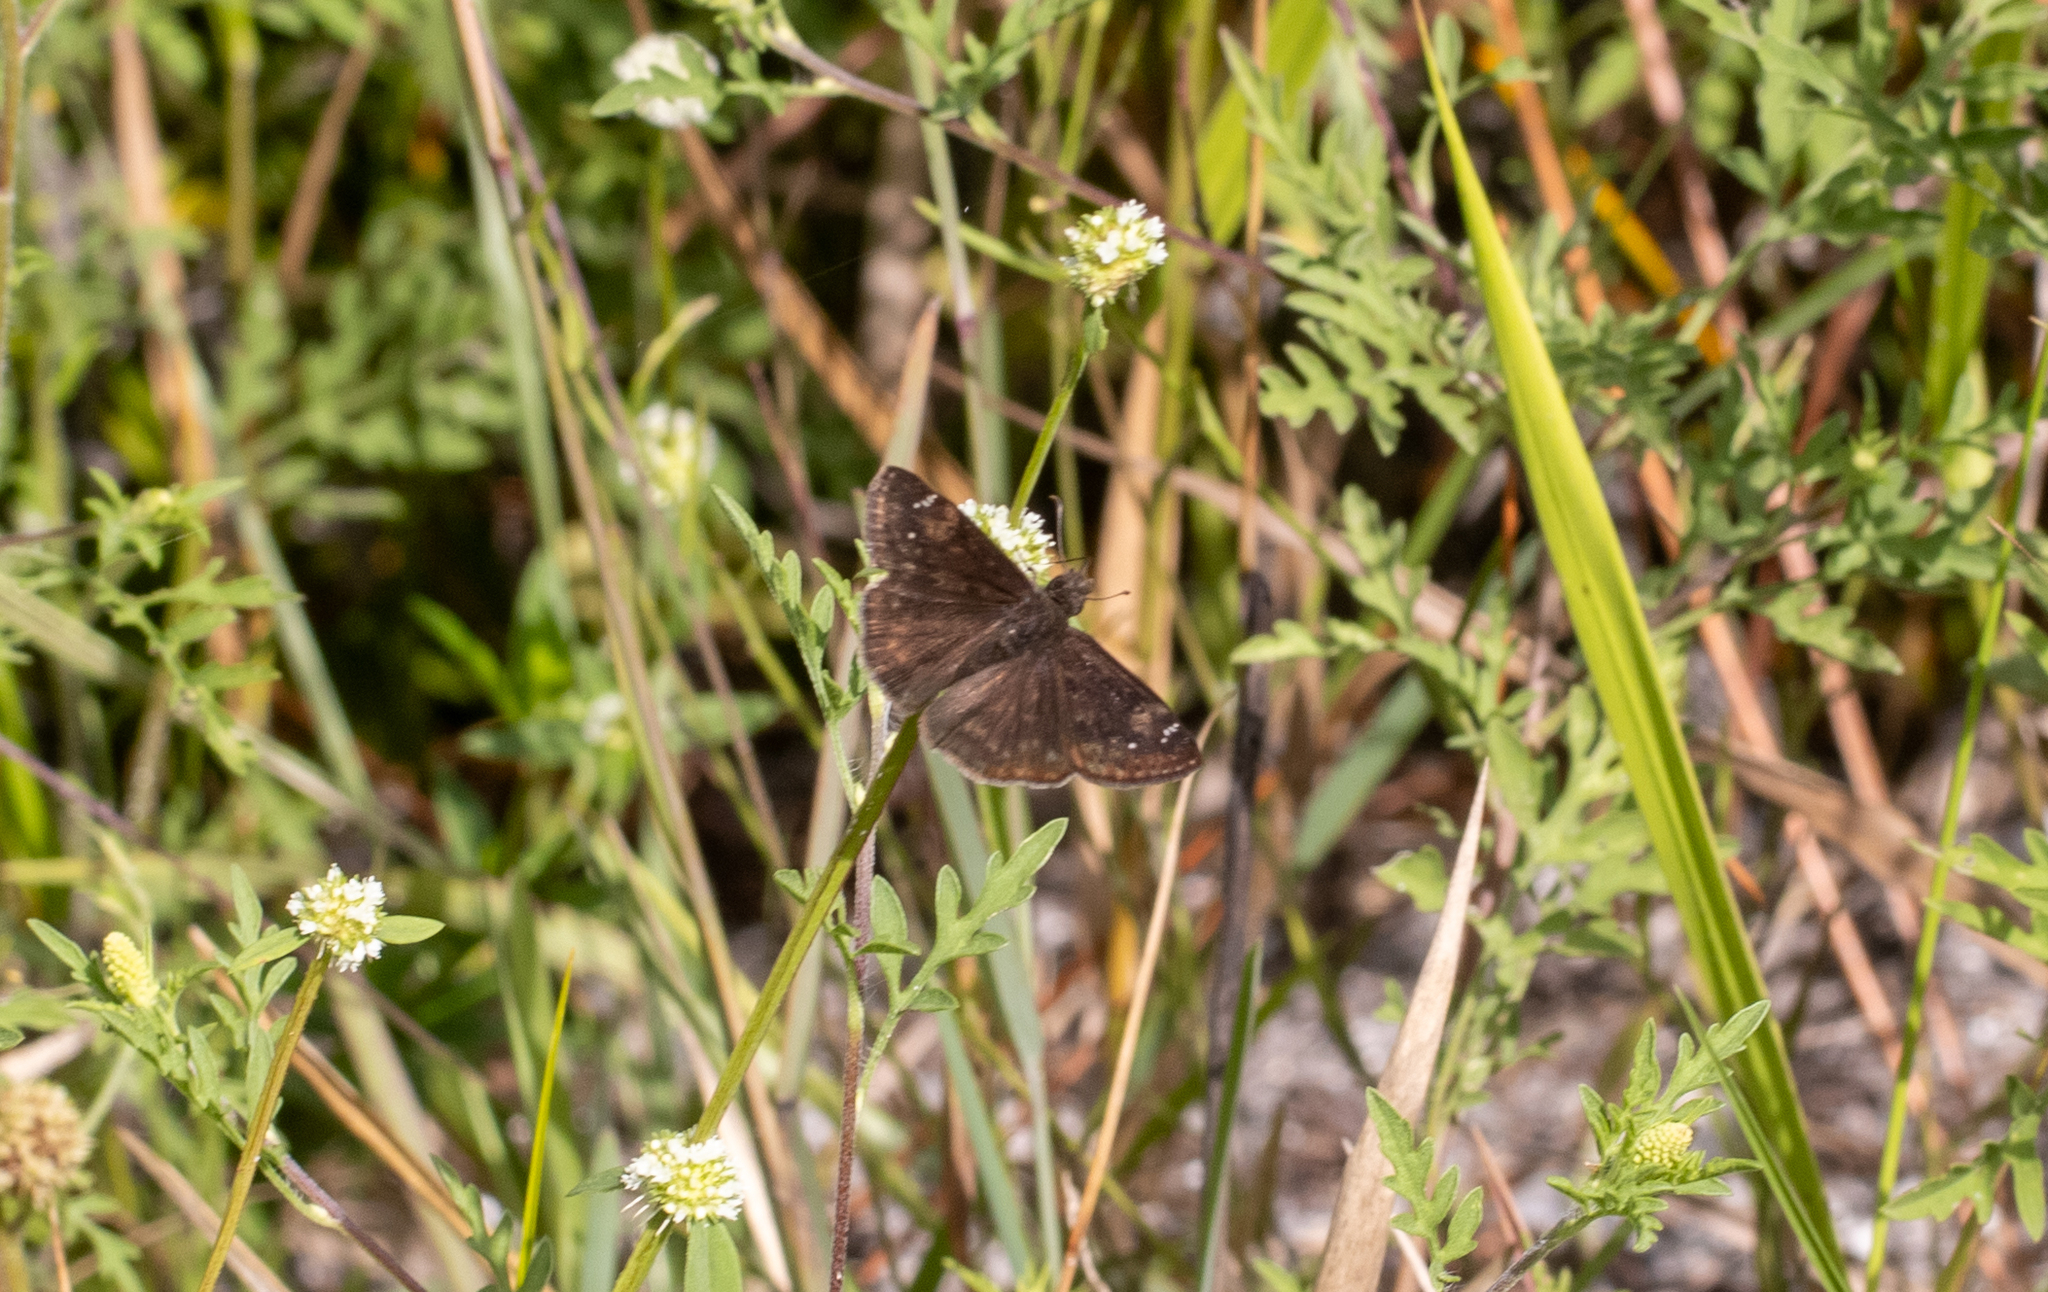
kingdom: Animalia
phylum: Arthropoda
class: Insecta
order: Lepidoptera
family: Hesperiidae
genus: Erynnis
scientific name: Erynnis zarucco
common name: Zarucco duskywing
